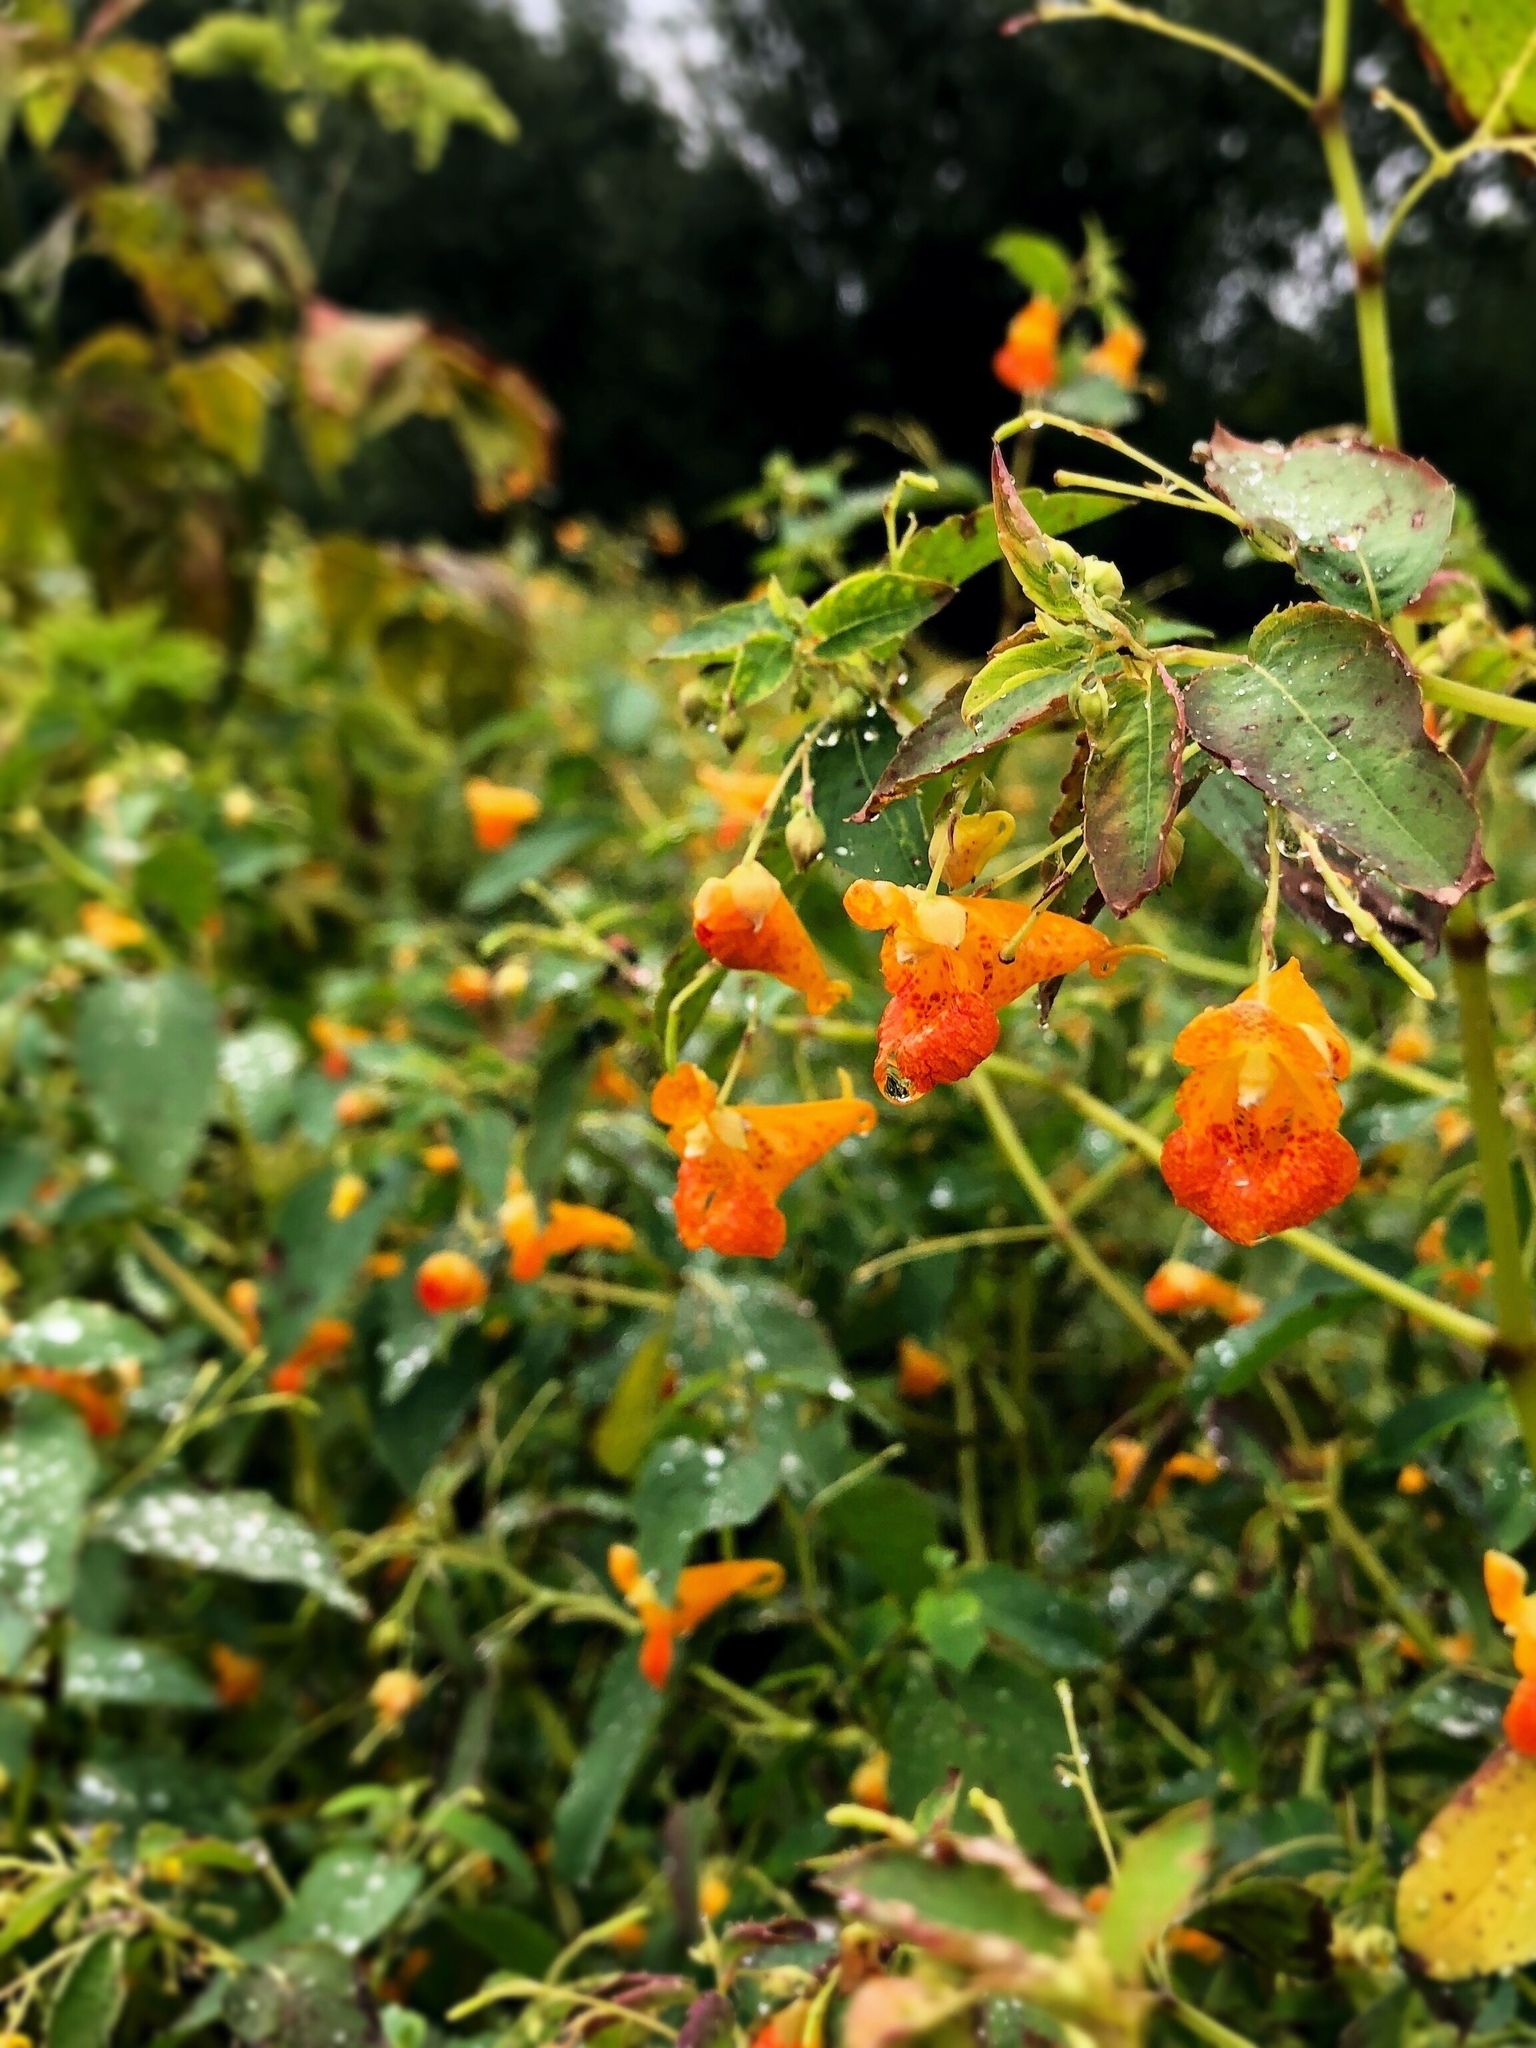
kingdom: Plantae
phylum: Tracheophyta
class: Magnoliopsida
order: Ericales
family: Balsaminaceae
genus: Impatiens
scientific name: Impatiens capensis
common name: Orange balsam
